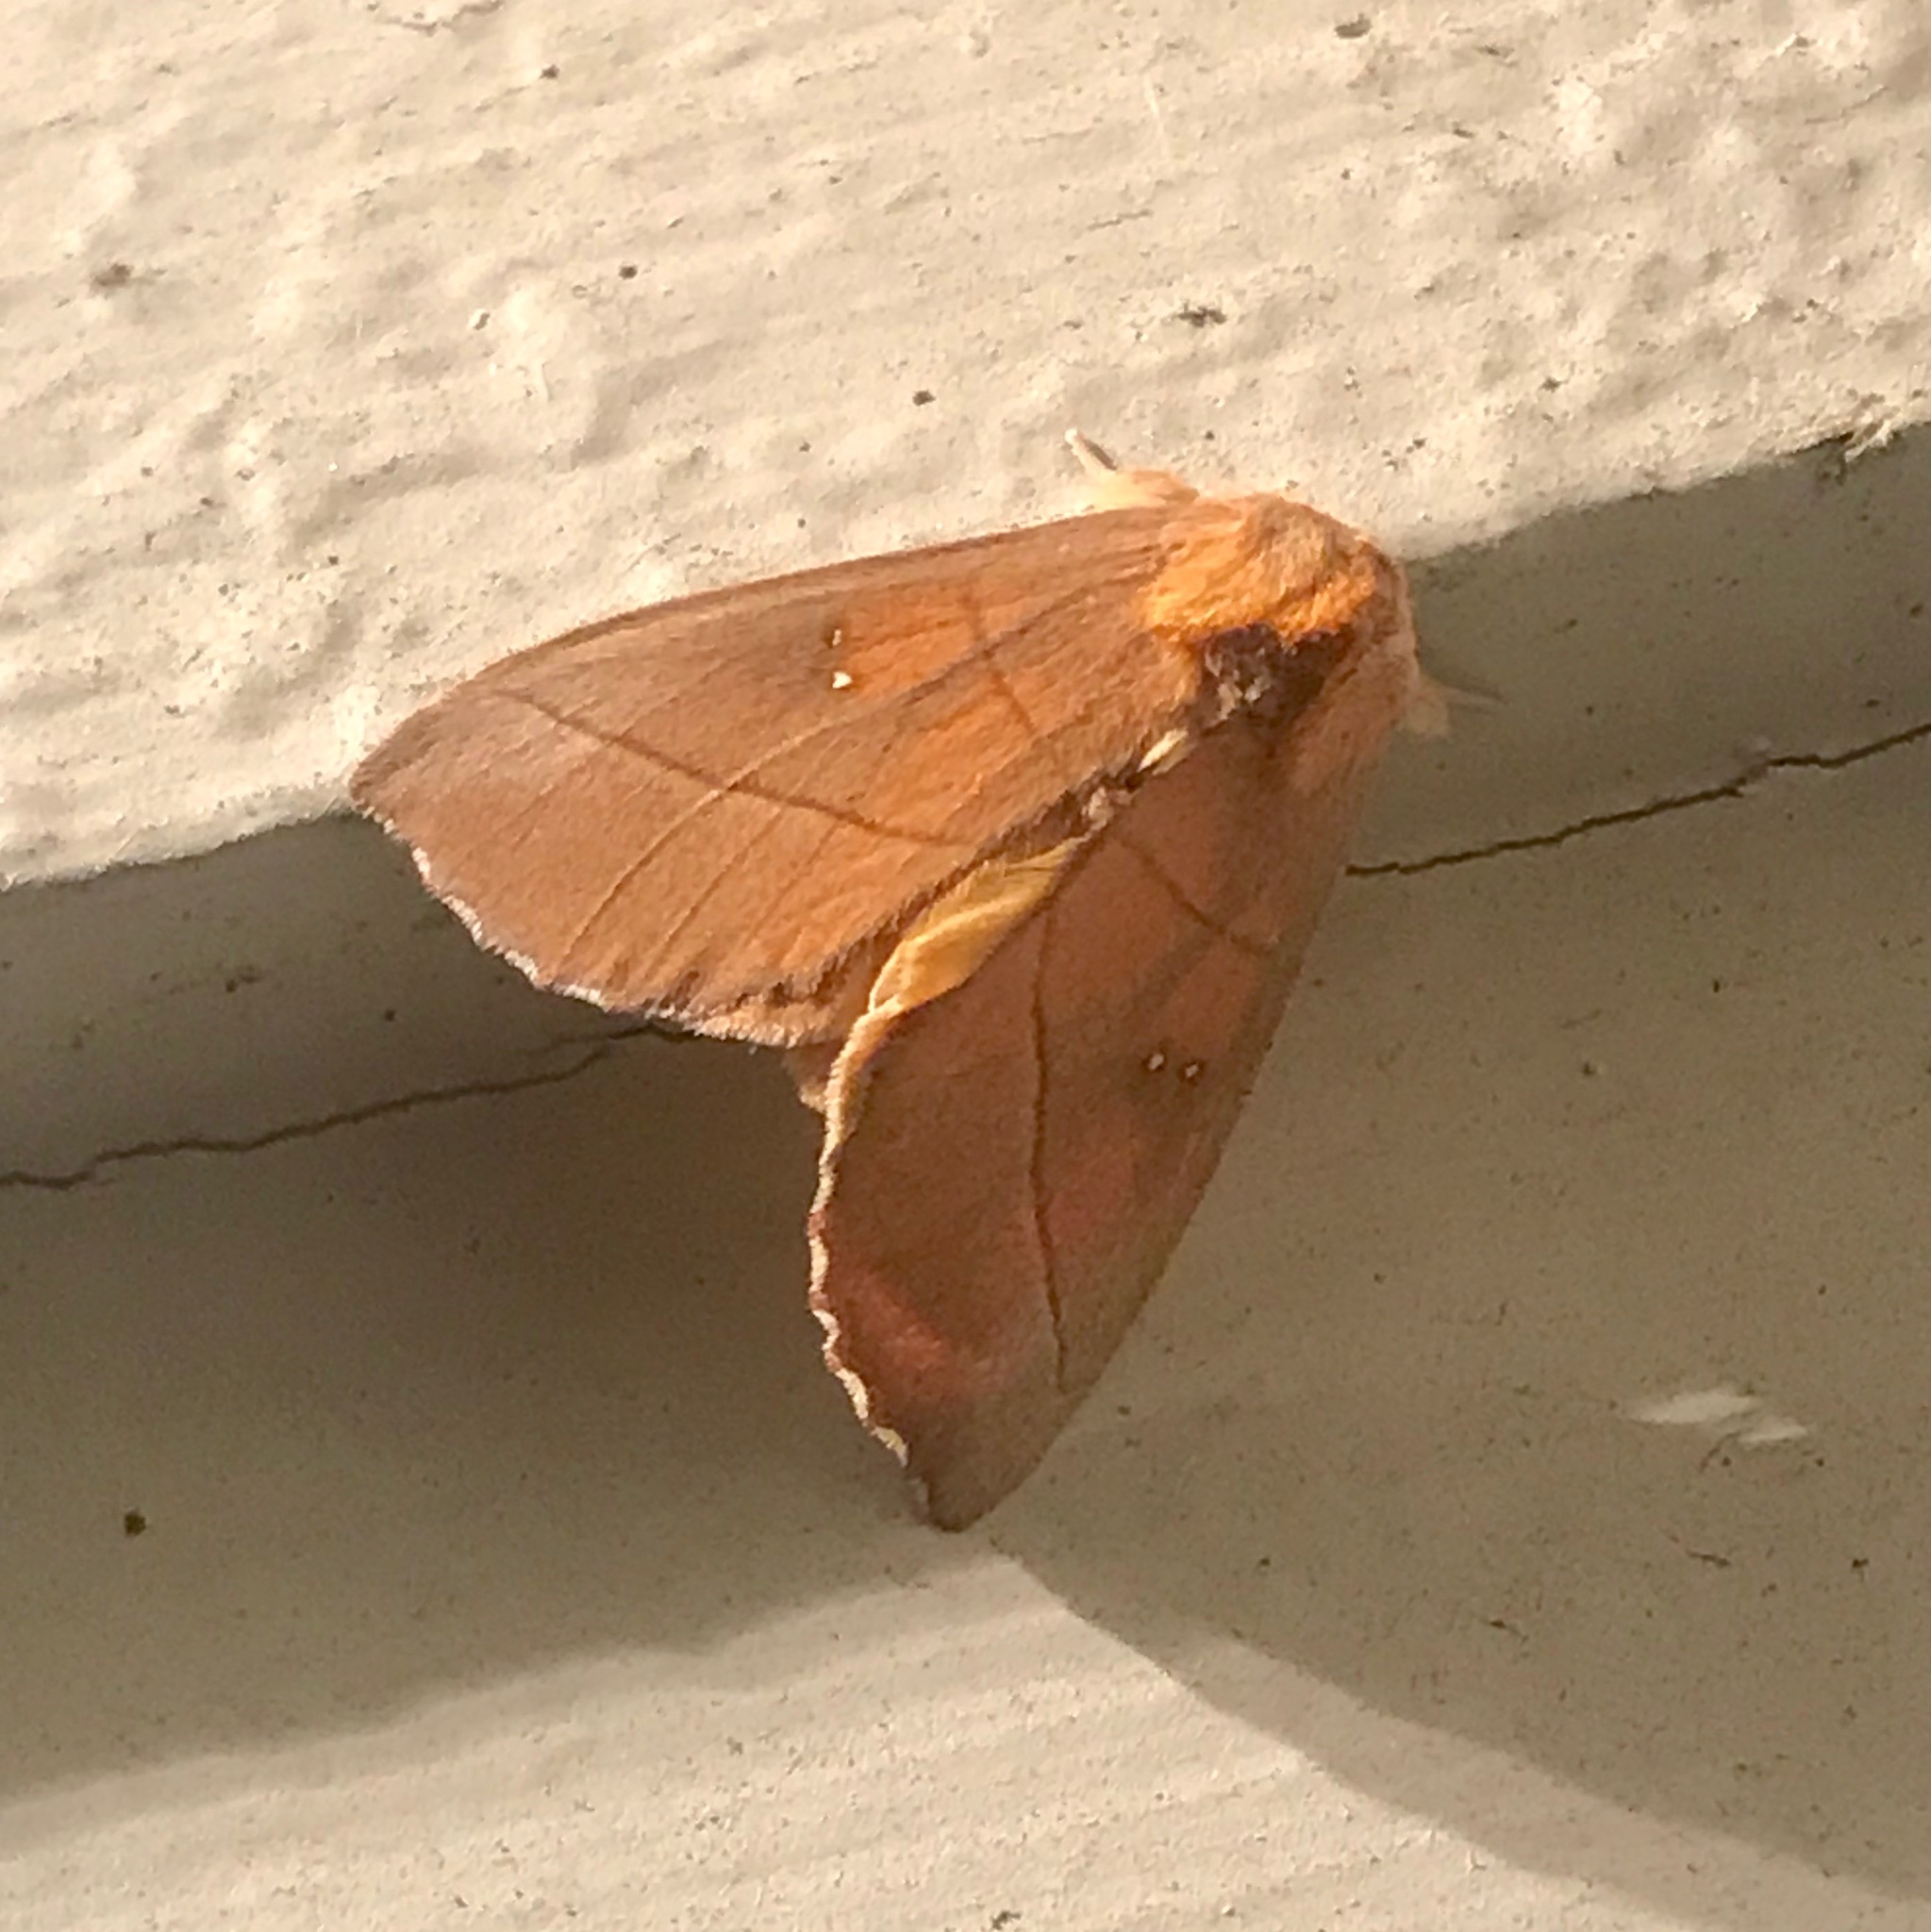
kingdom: Animalia
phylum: Arthropoda
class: Insecta
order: Lepidoptera
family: Notodontidae
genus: Nadata
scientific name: Nadata gibbosa
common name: White-dotted prominent
